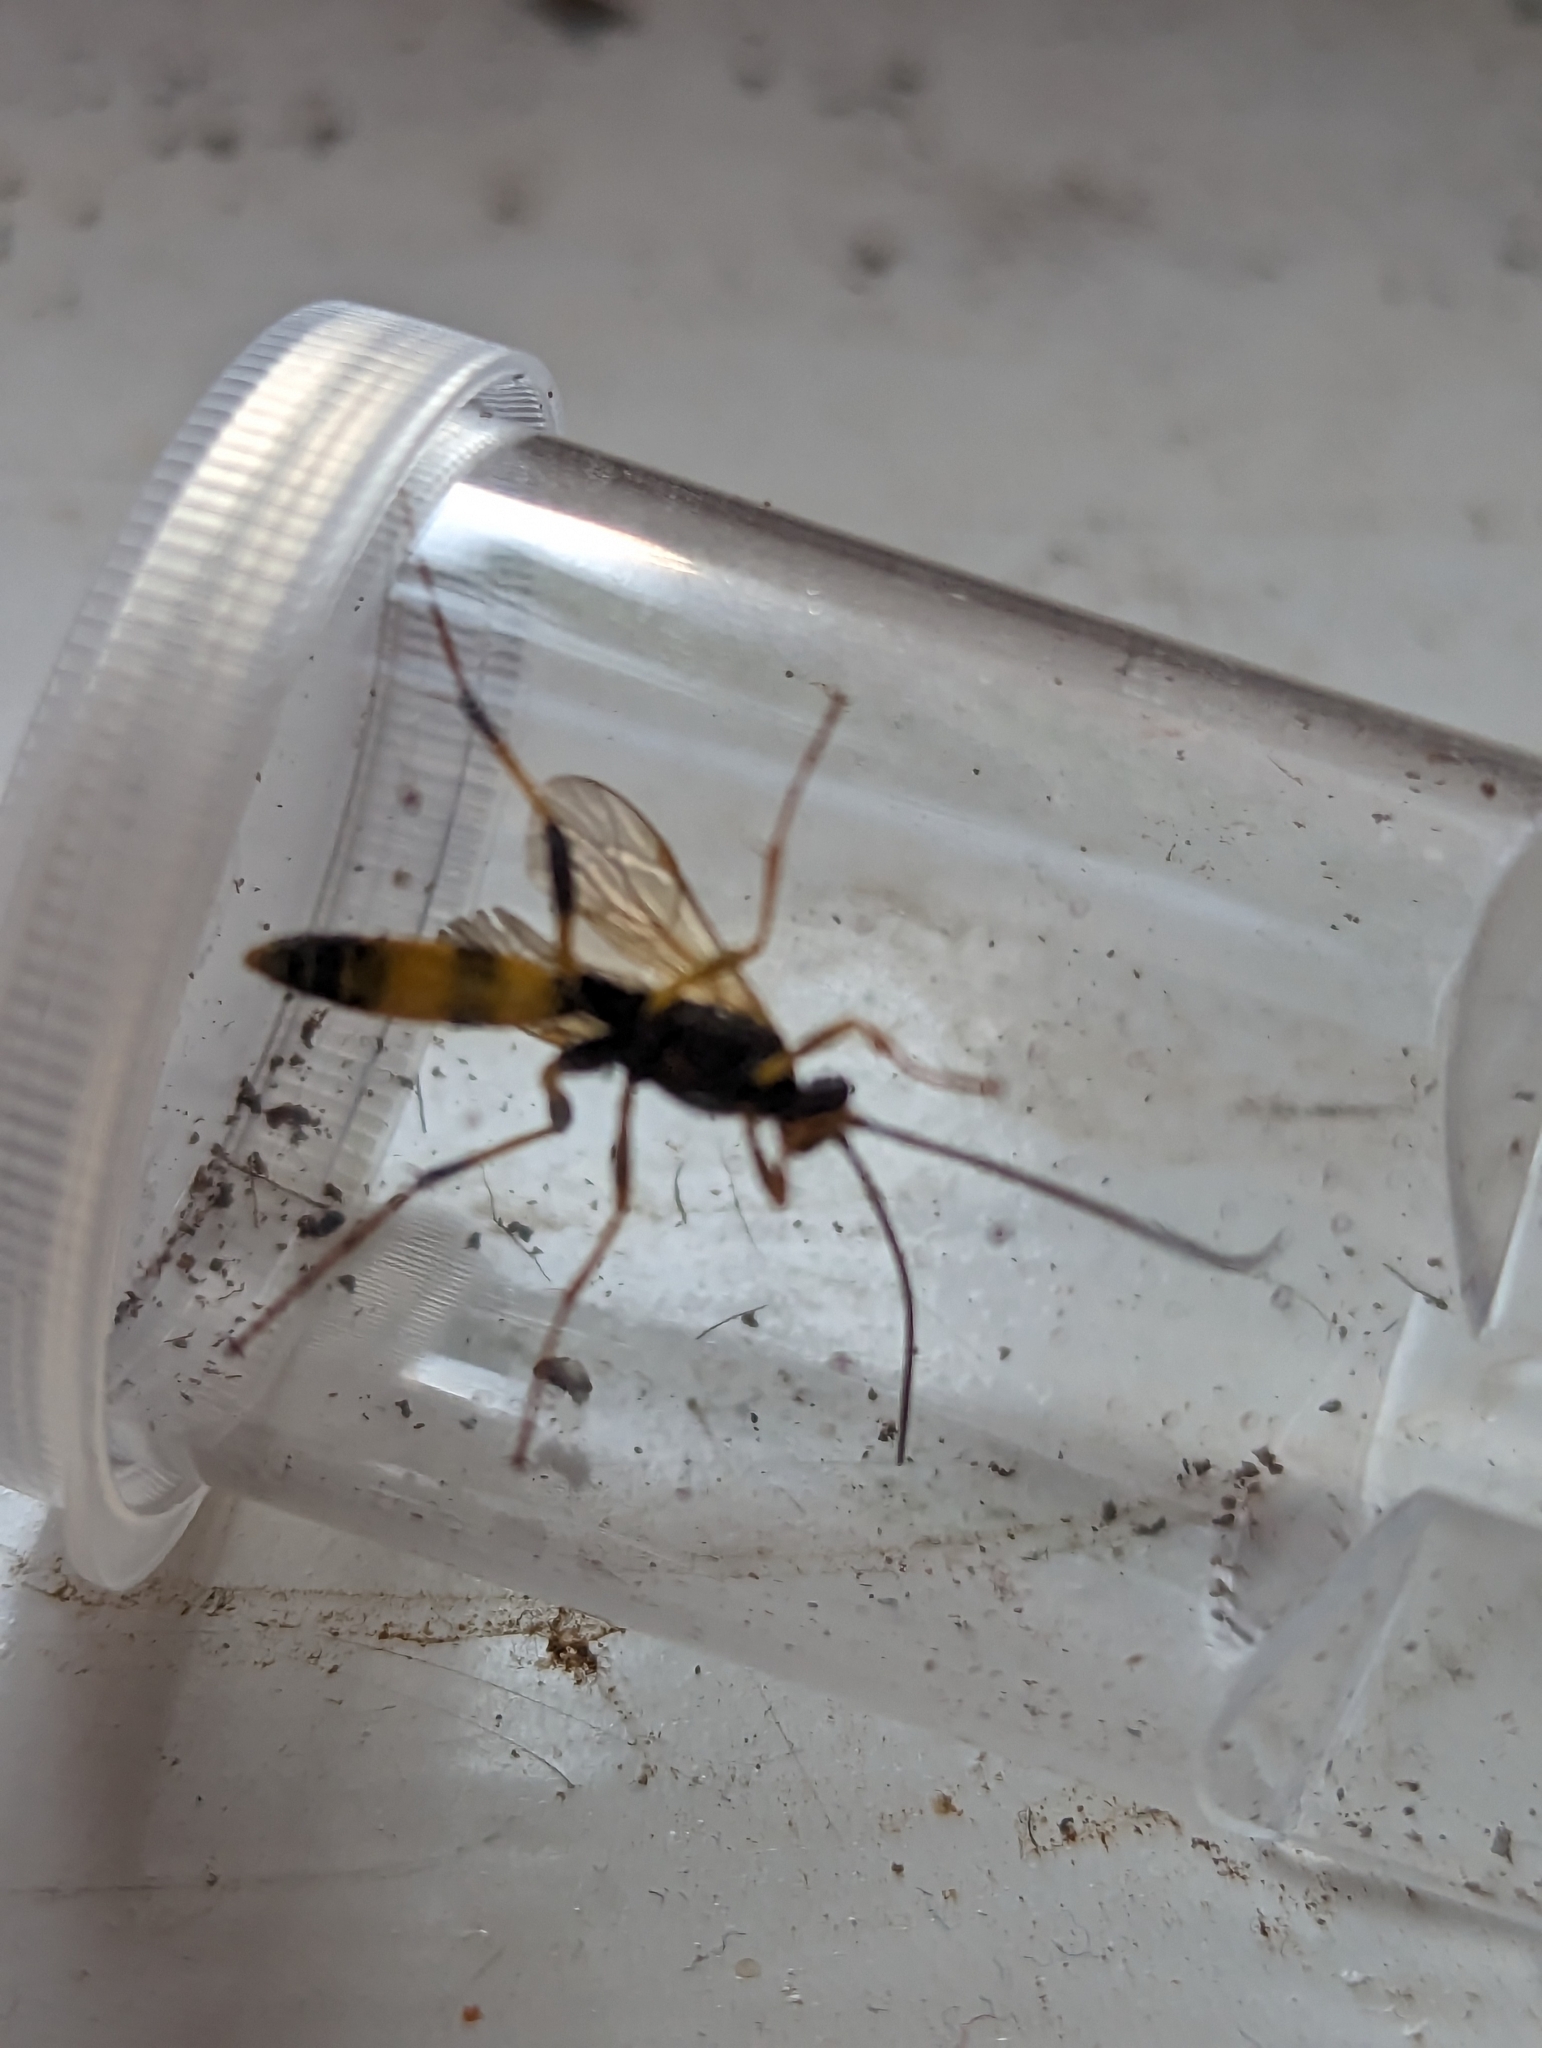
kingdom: Animalia
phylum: Arthropoda
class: Insecta
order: Hymenoptera
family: Ichneumonidae
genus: Amblyteles
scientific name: Amblyteles armatorius
